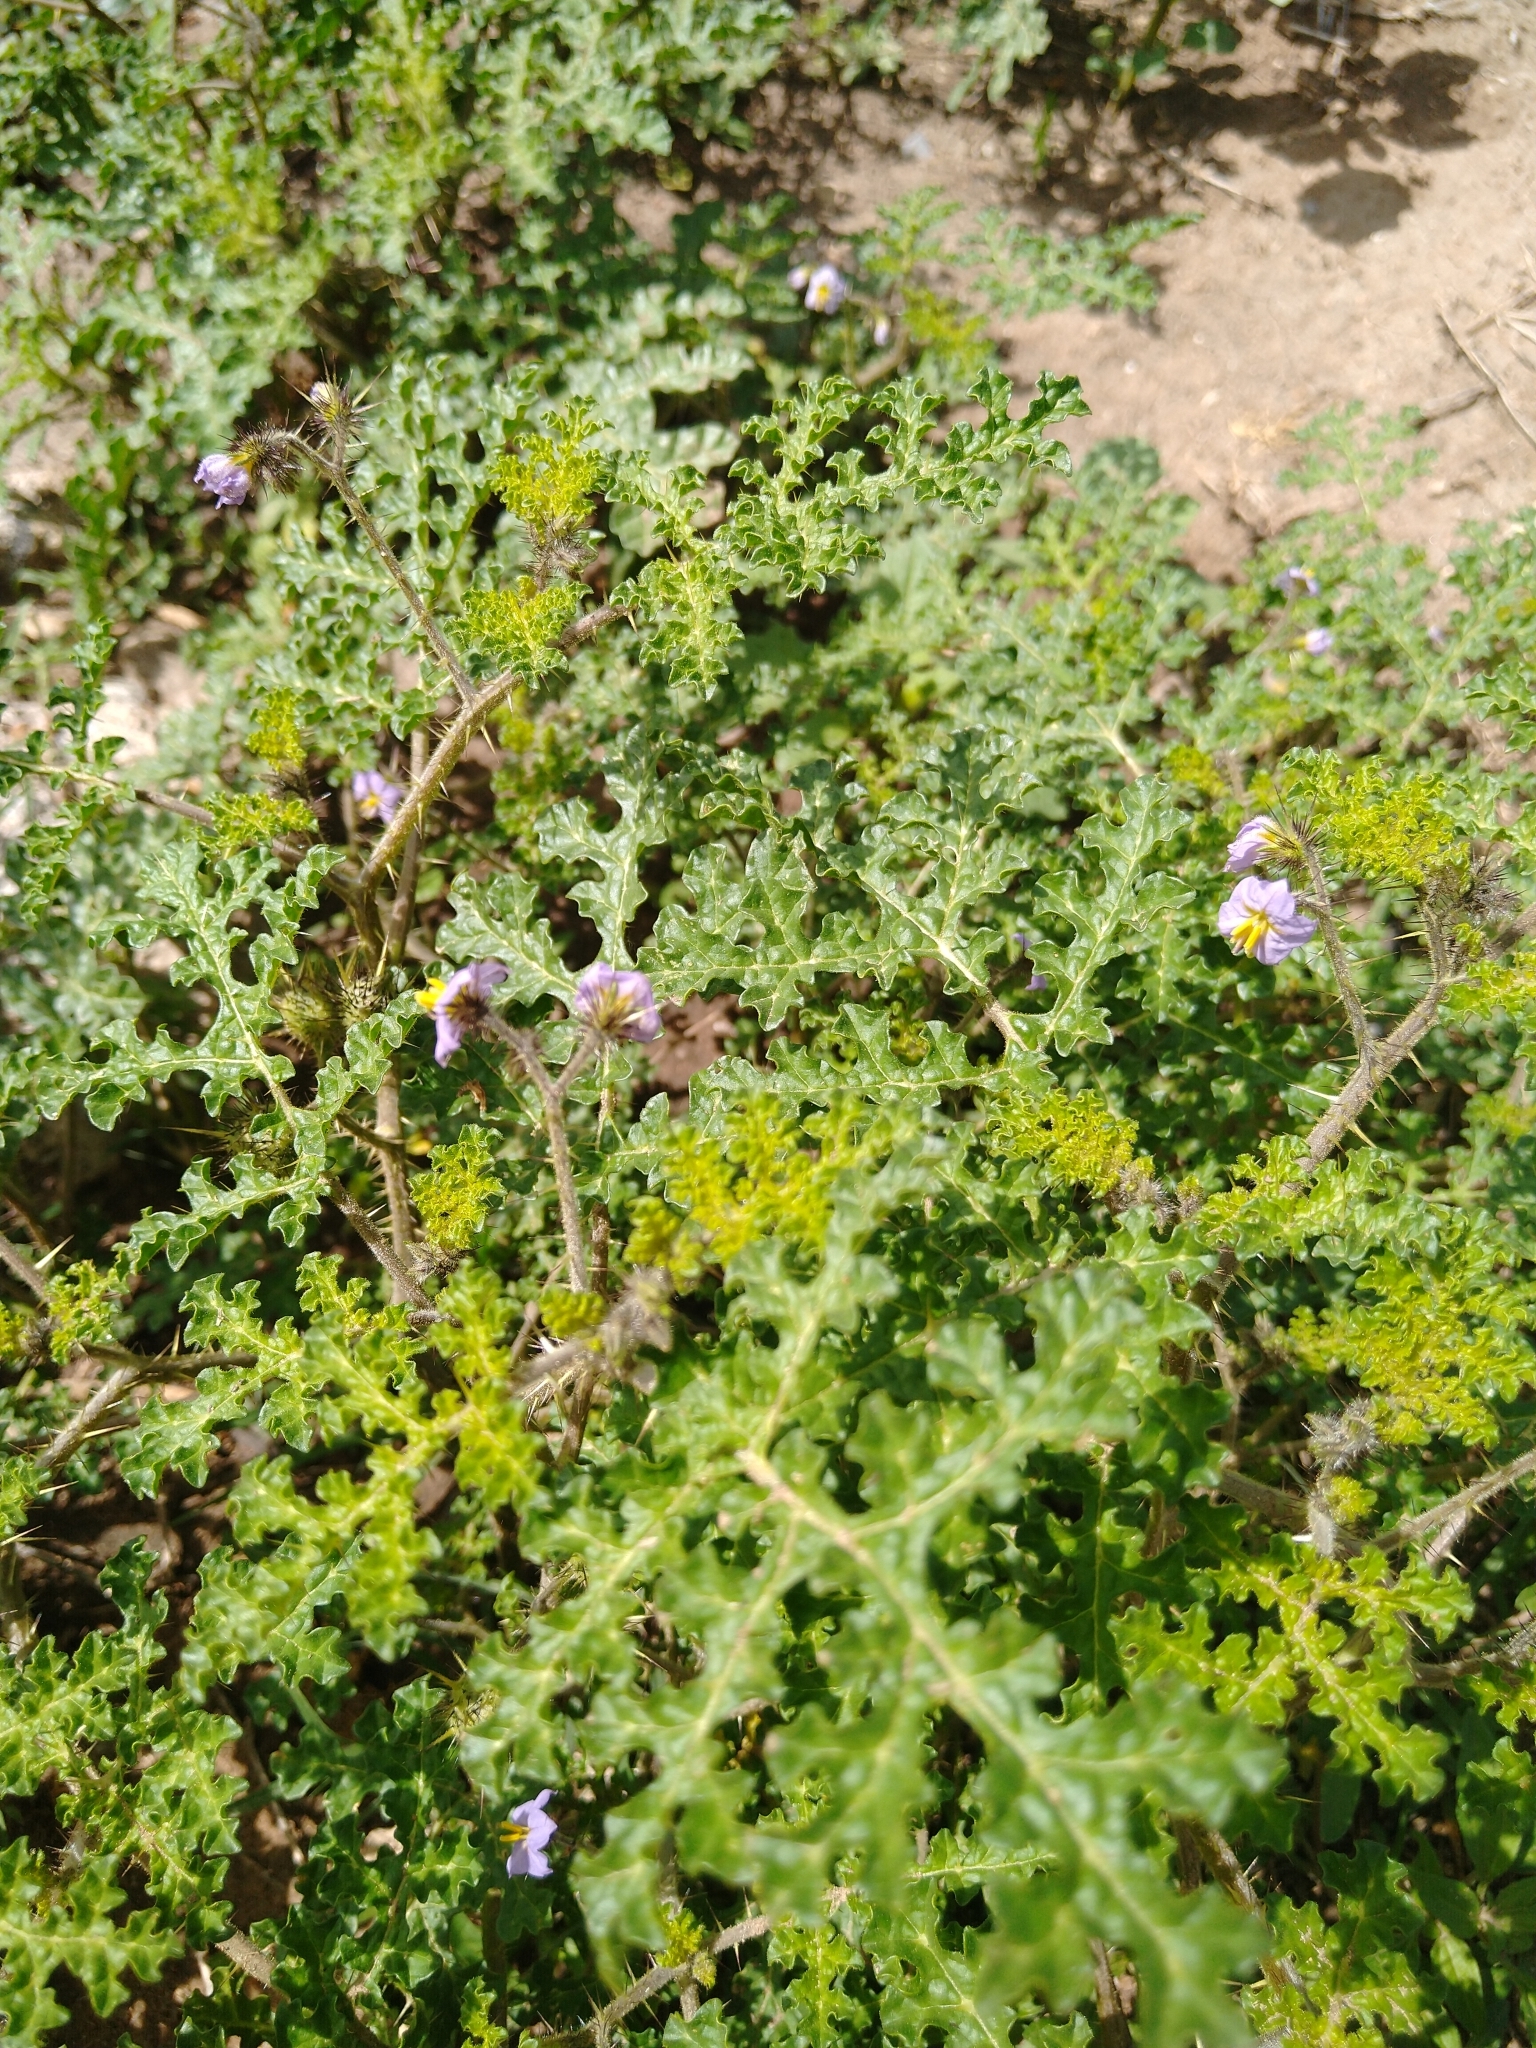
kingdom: Plantae
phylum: Tracheophyta
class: Magnoliopsida
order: Solanales
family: Solanaceae
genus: Solanum
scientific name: Solanum heterodoxum
